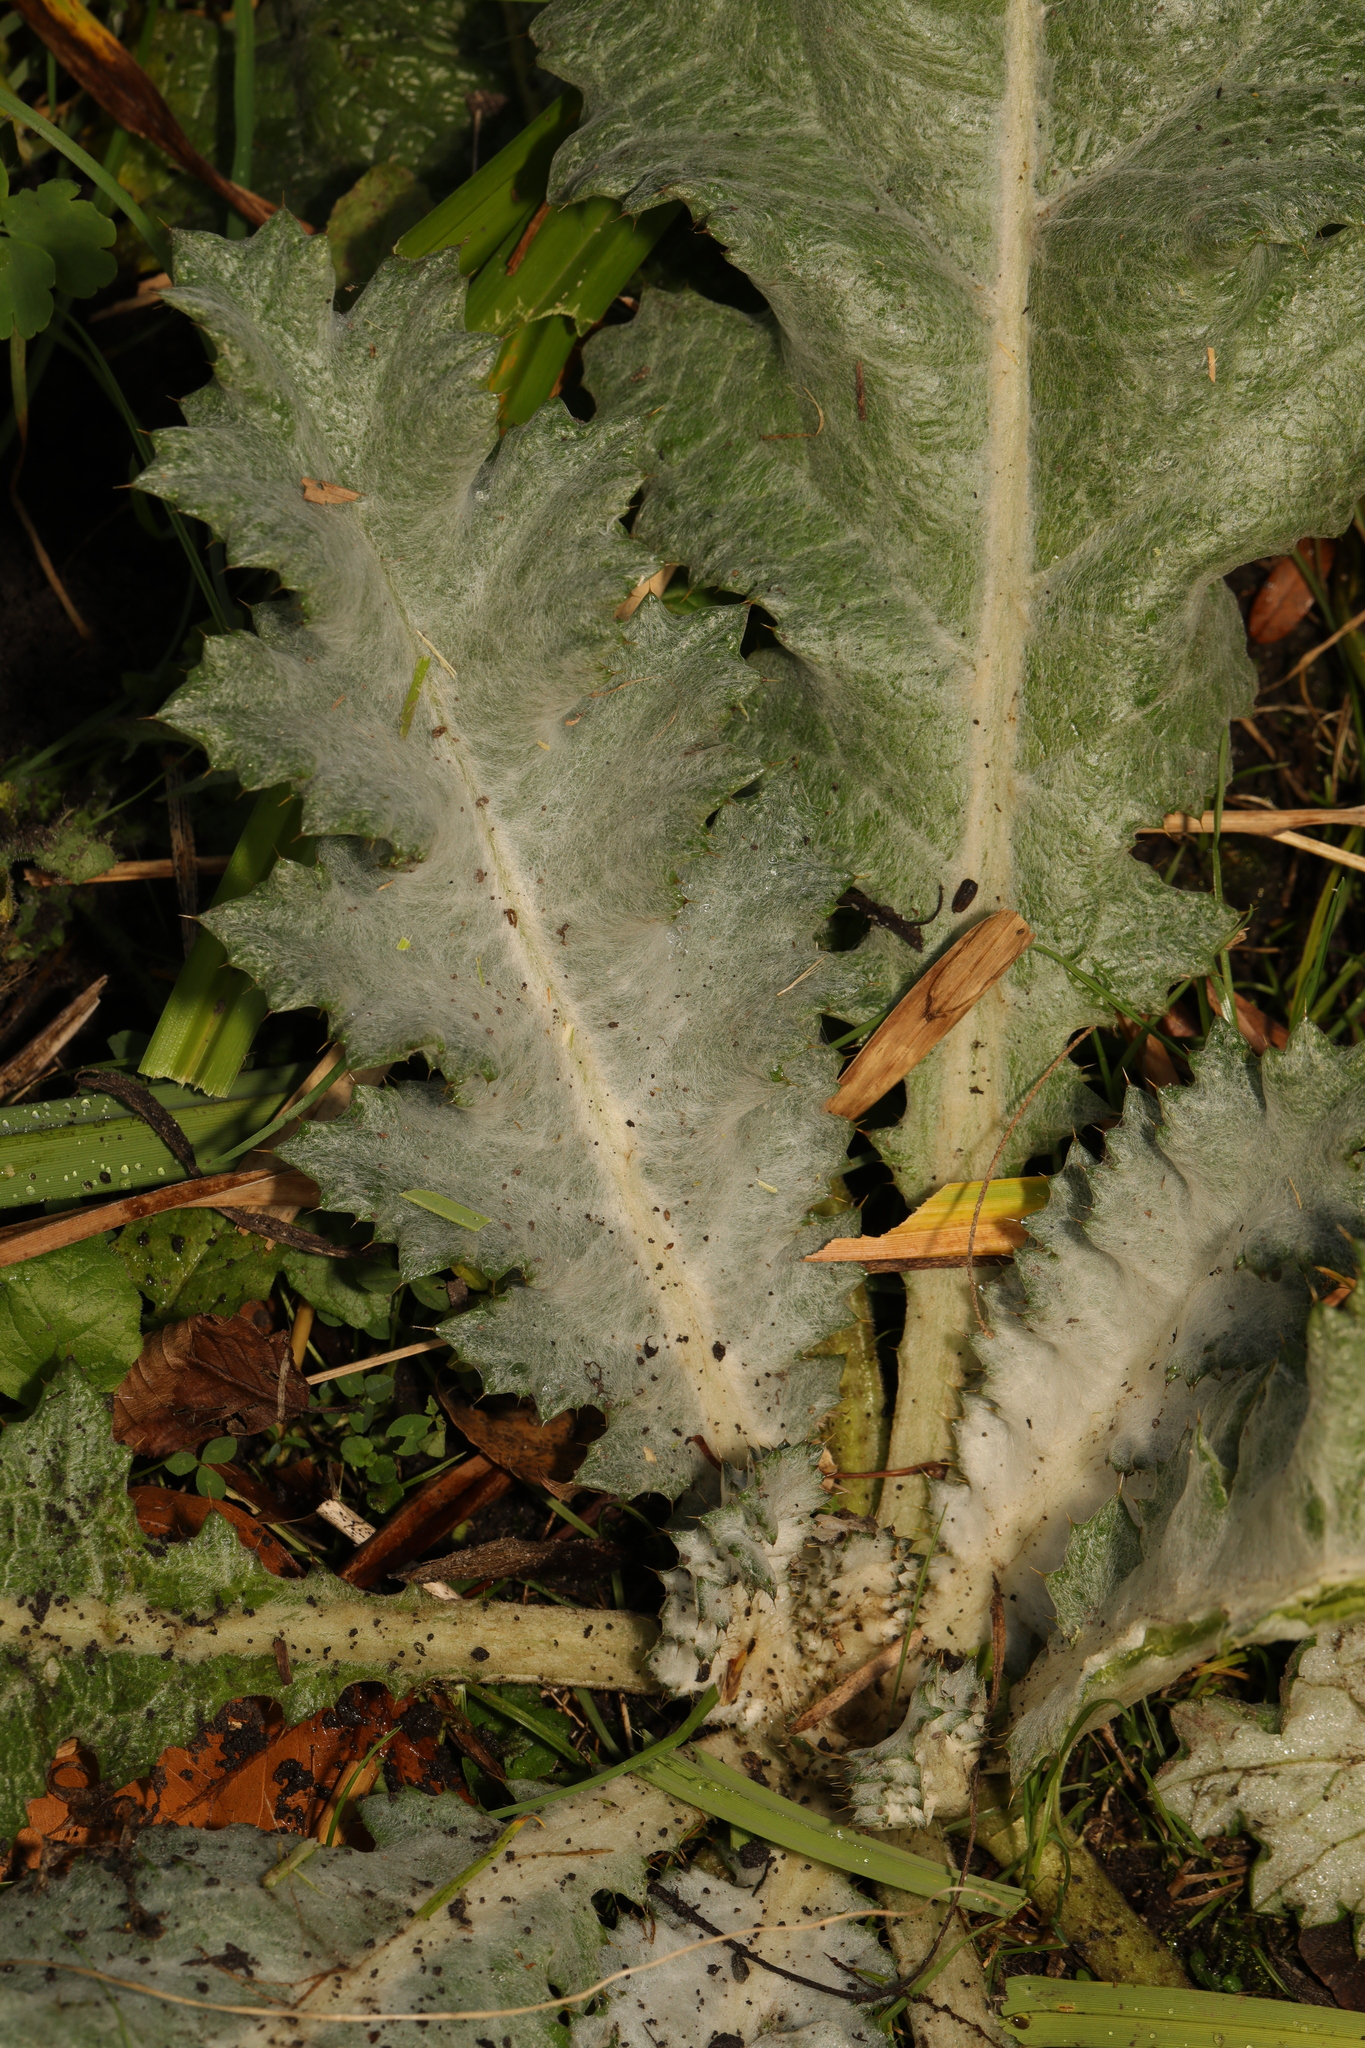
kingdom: Plantae
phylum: Tracheophyta
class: Magnoliopsida
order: Asterales
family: Asteraceae
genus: Onopordum
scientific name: Onopordum acanthium
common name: Scotch thistle
